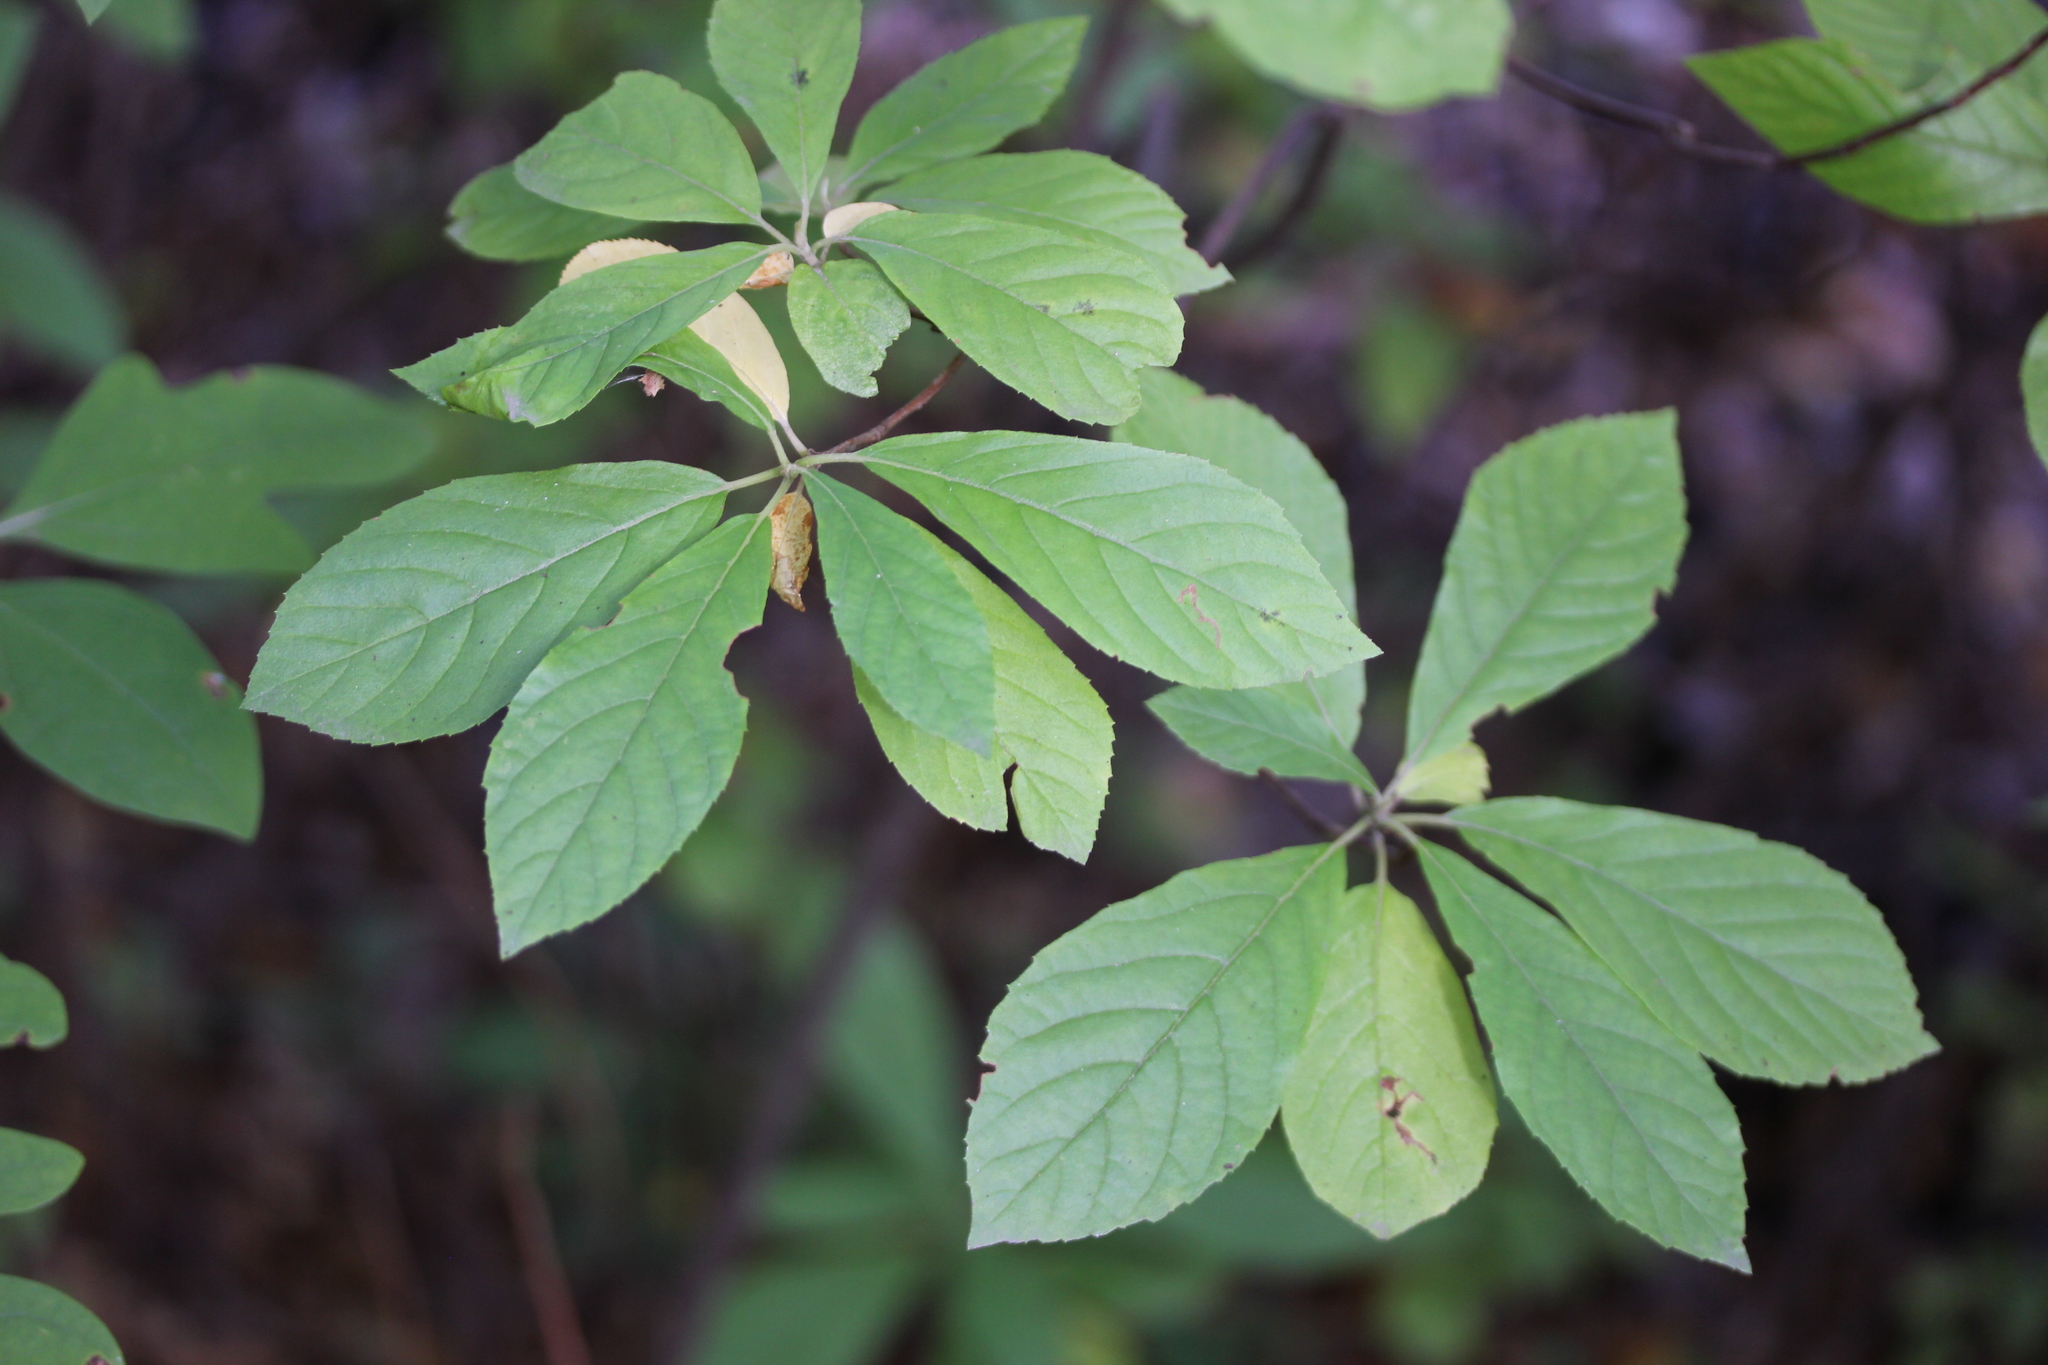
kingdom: Plantae
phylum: Tracheophyta
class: Magnoliopsida
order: Ericales
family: Clethraceae
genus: Clethra
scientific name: Clethra alnifolia
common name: Sweet pepperbush
